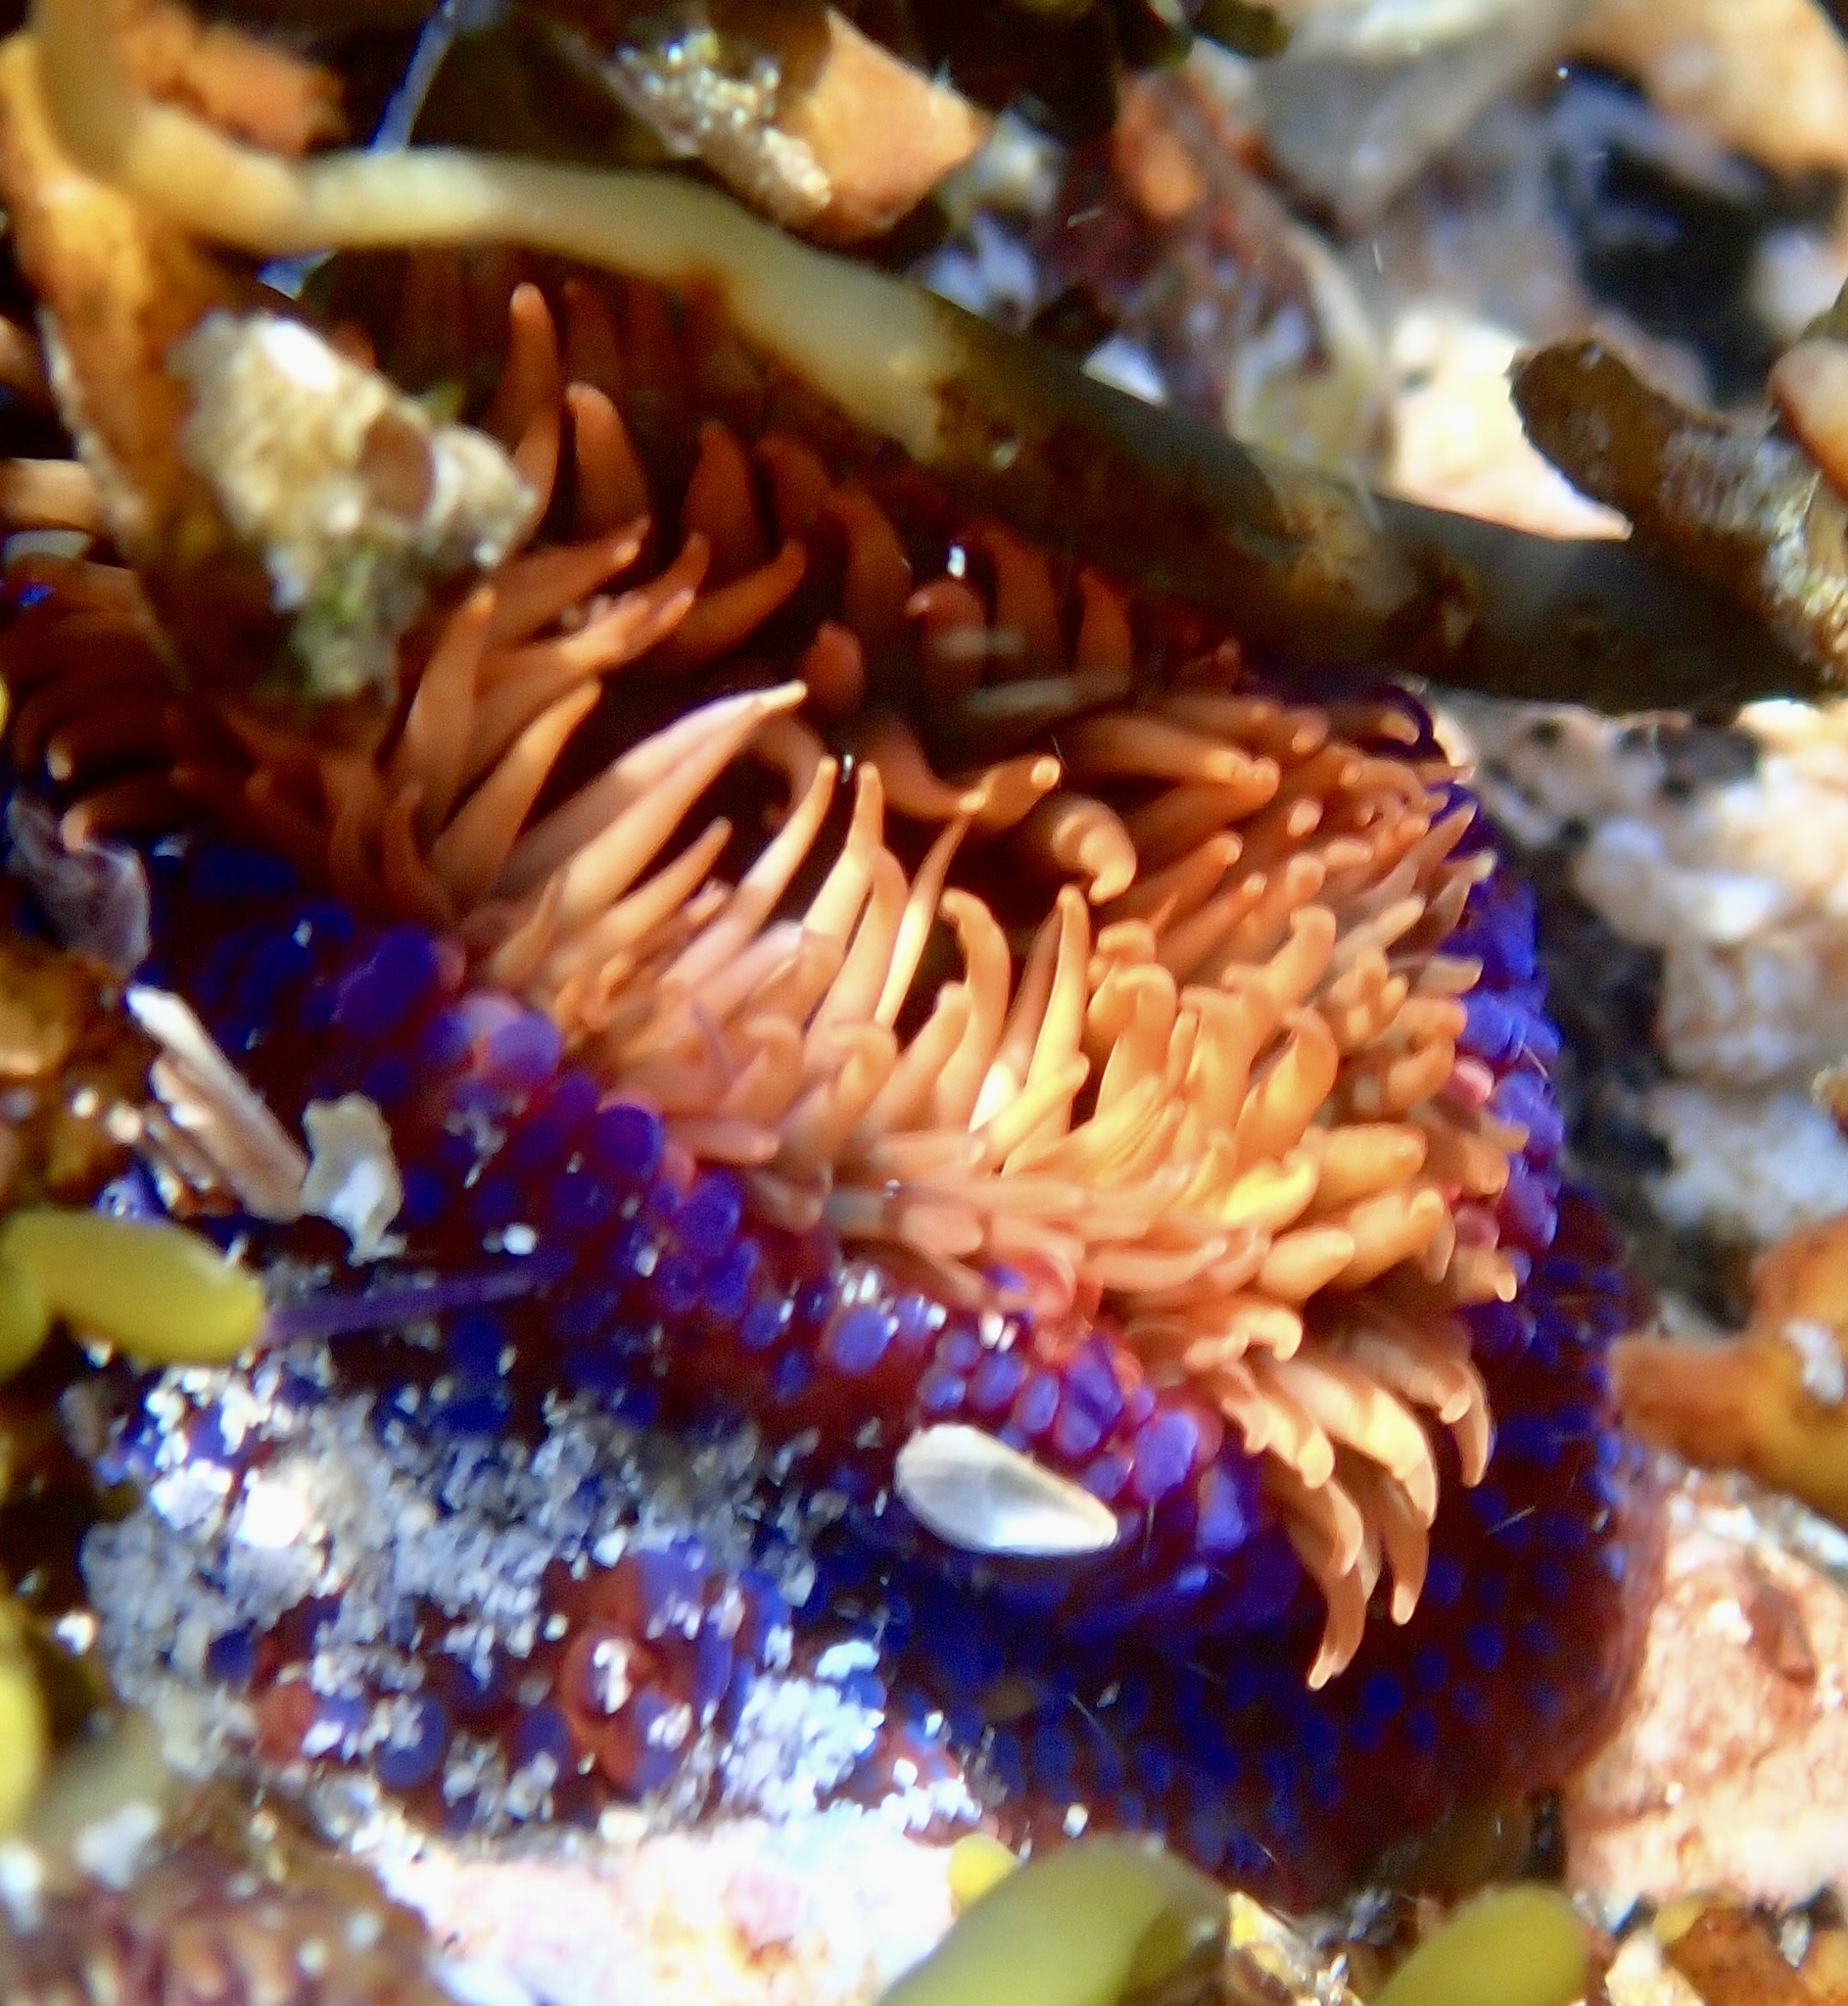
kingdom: Animalia
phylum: Cnidaria
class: Anthozoa
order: Actiniaria
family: Actiniidae
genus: Bunodosoma
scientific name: Bunodosoma capense
